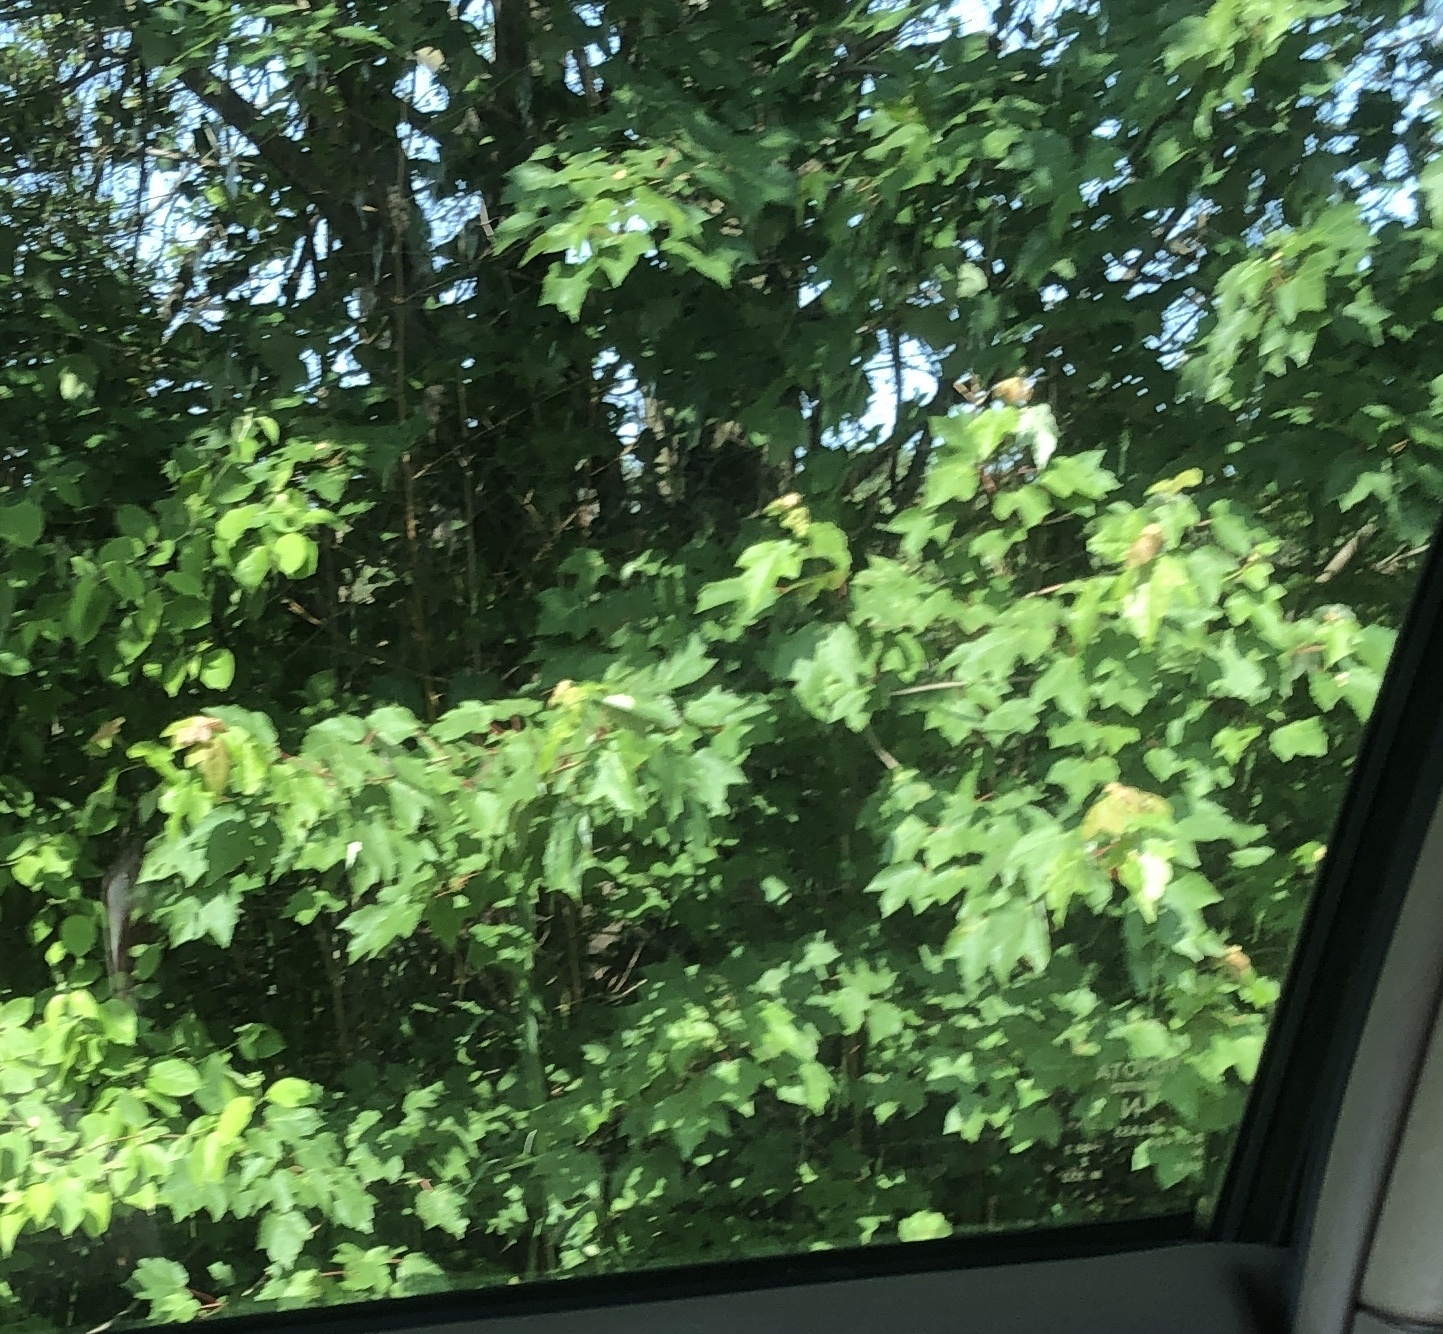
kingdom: Plantae
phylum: Tracheophyta
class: Magnoliopsida
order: Sapindales
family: Sapindaceae
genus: Acer
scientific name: Acer rubrum
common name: Red maple
